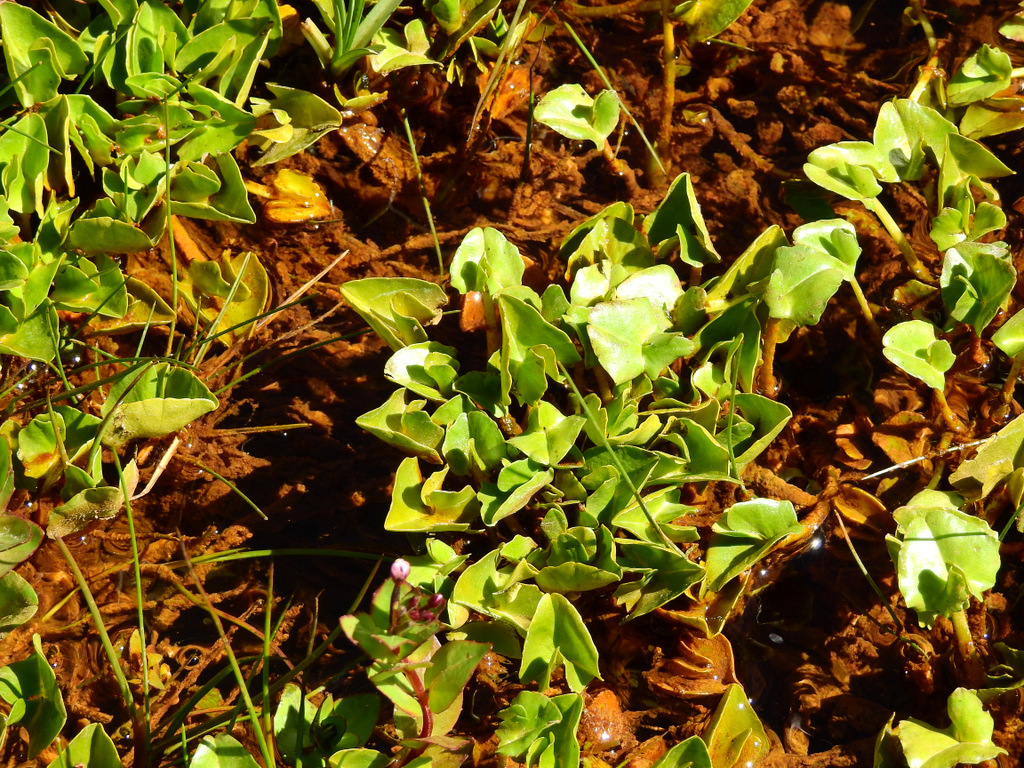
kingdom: Plantae
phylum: Tracheophyta
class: Magnoliopsida
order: Ranunculales
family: Ranunculaceae
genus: Caltha
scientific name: Caltha sagittata
